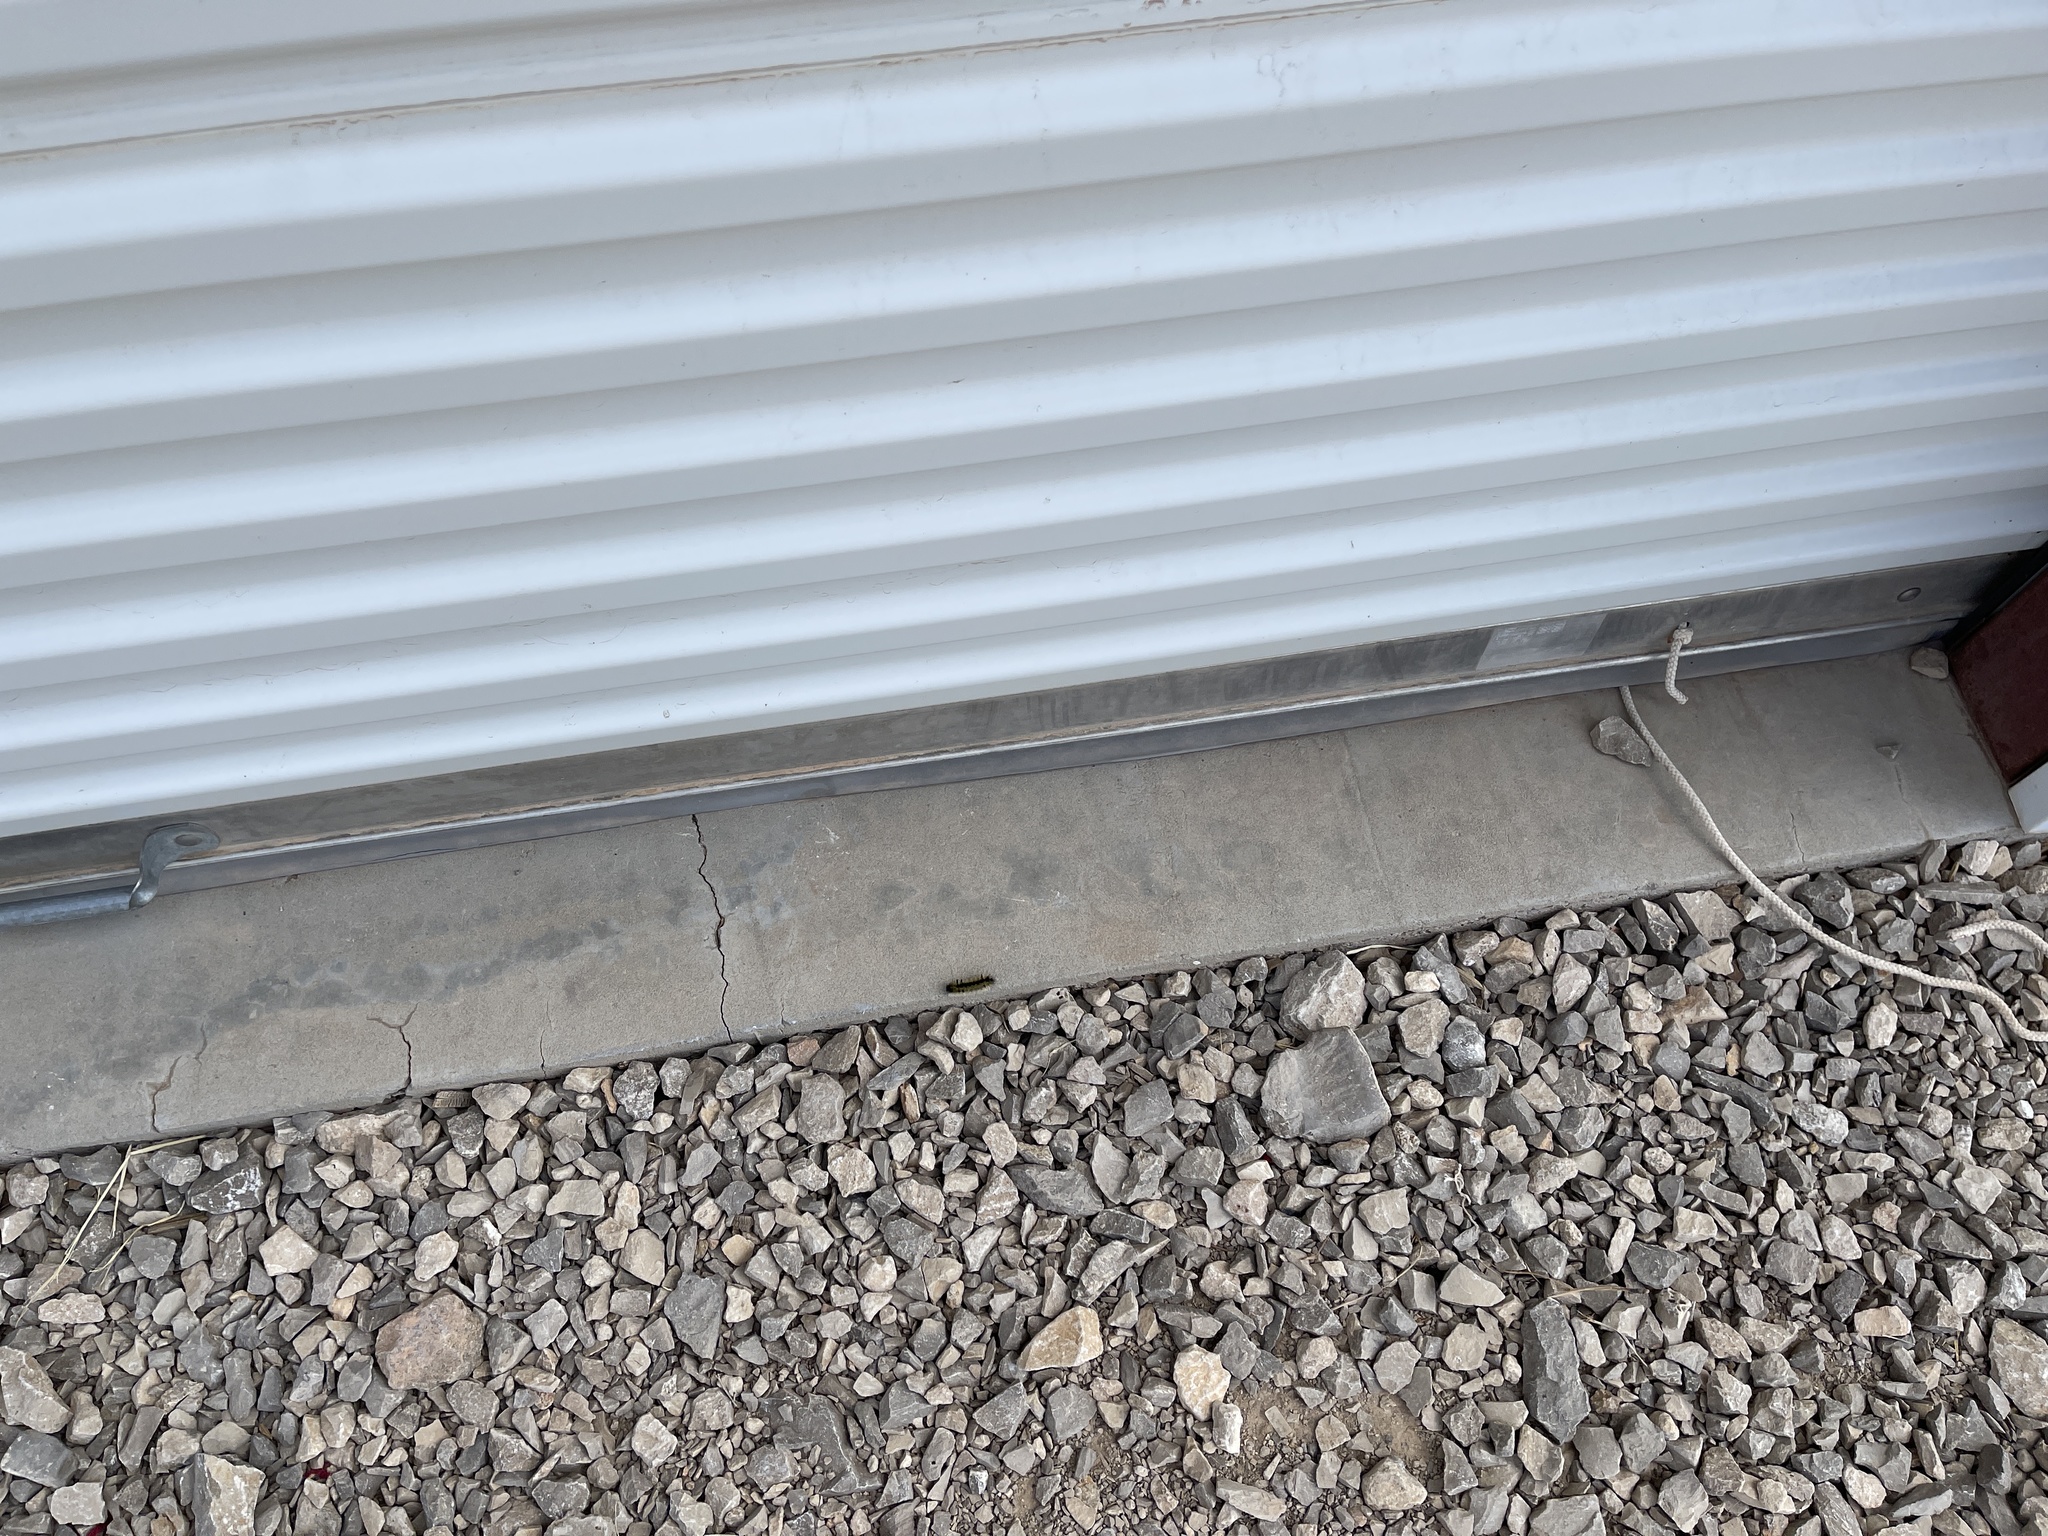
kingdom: Animalia
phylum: Arthropoda
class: Insecta
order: Lepidoptera
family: Erebidae
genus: Lophocampa
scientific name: Lophocampa argentata
